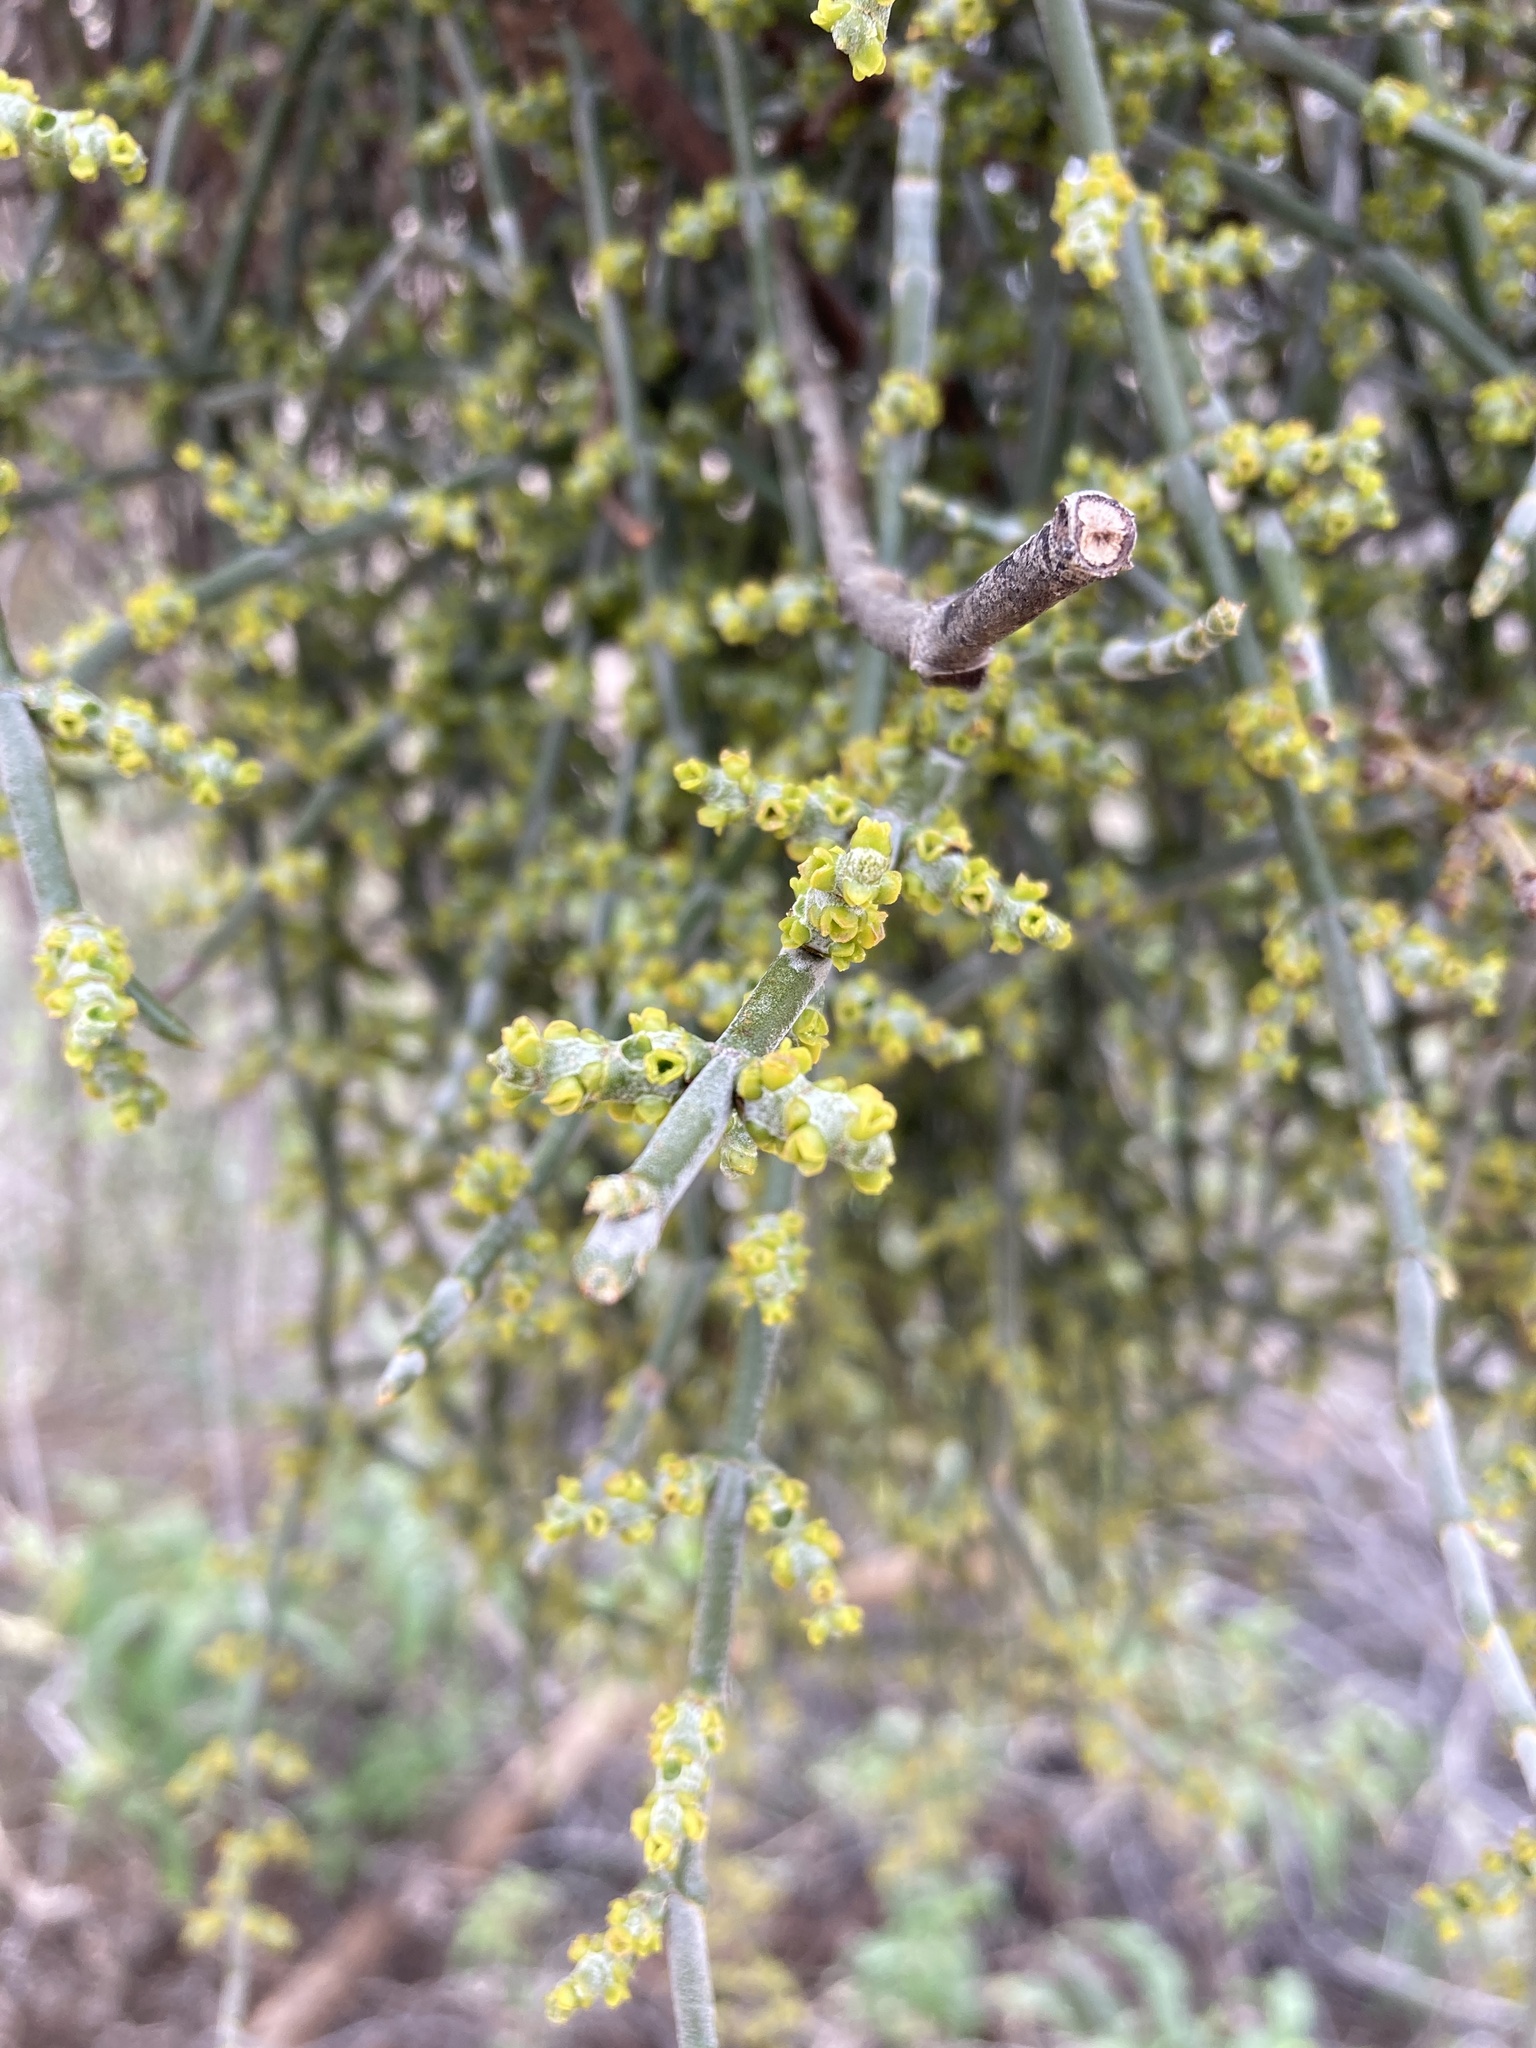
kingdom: Plantae
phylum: Tracheophyta
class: Magnoliopsida
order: Santalales
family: Viscaceae
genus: Phoradendron
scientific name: Phoradendron californicum
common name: Acacia mistletoe
